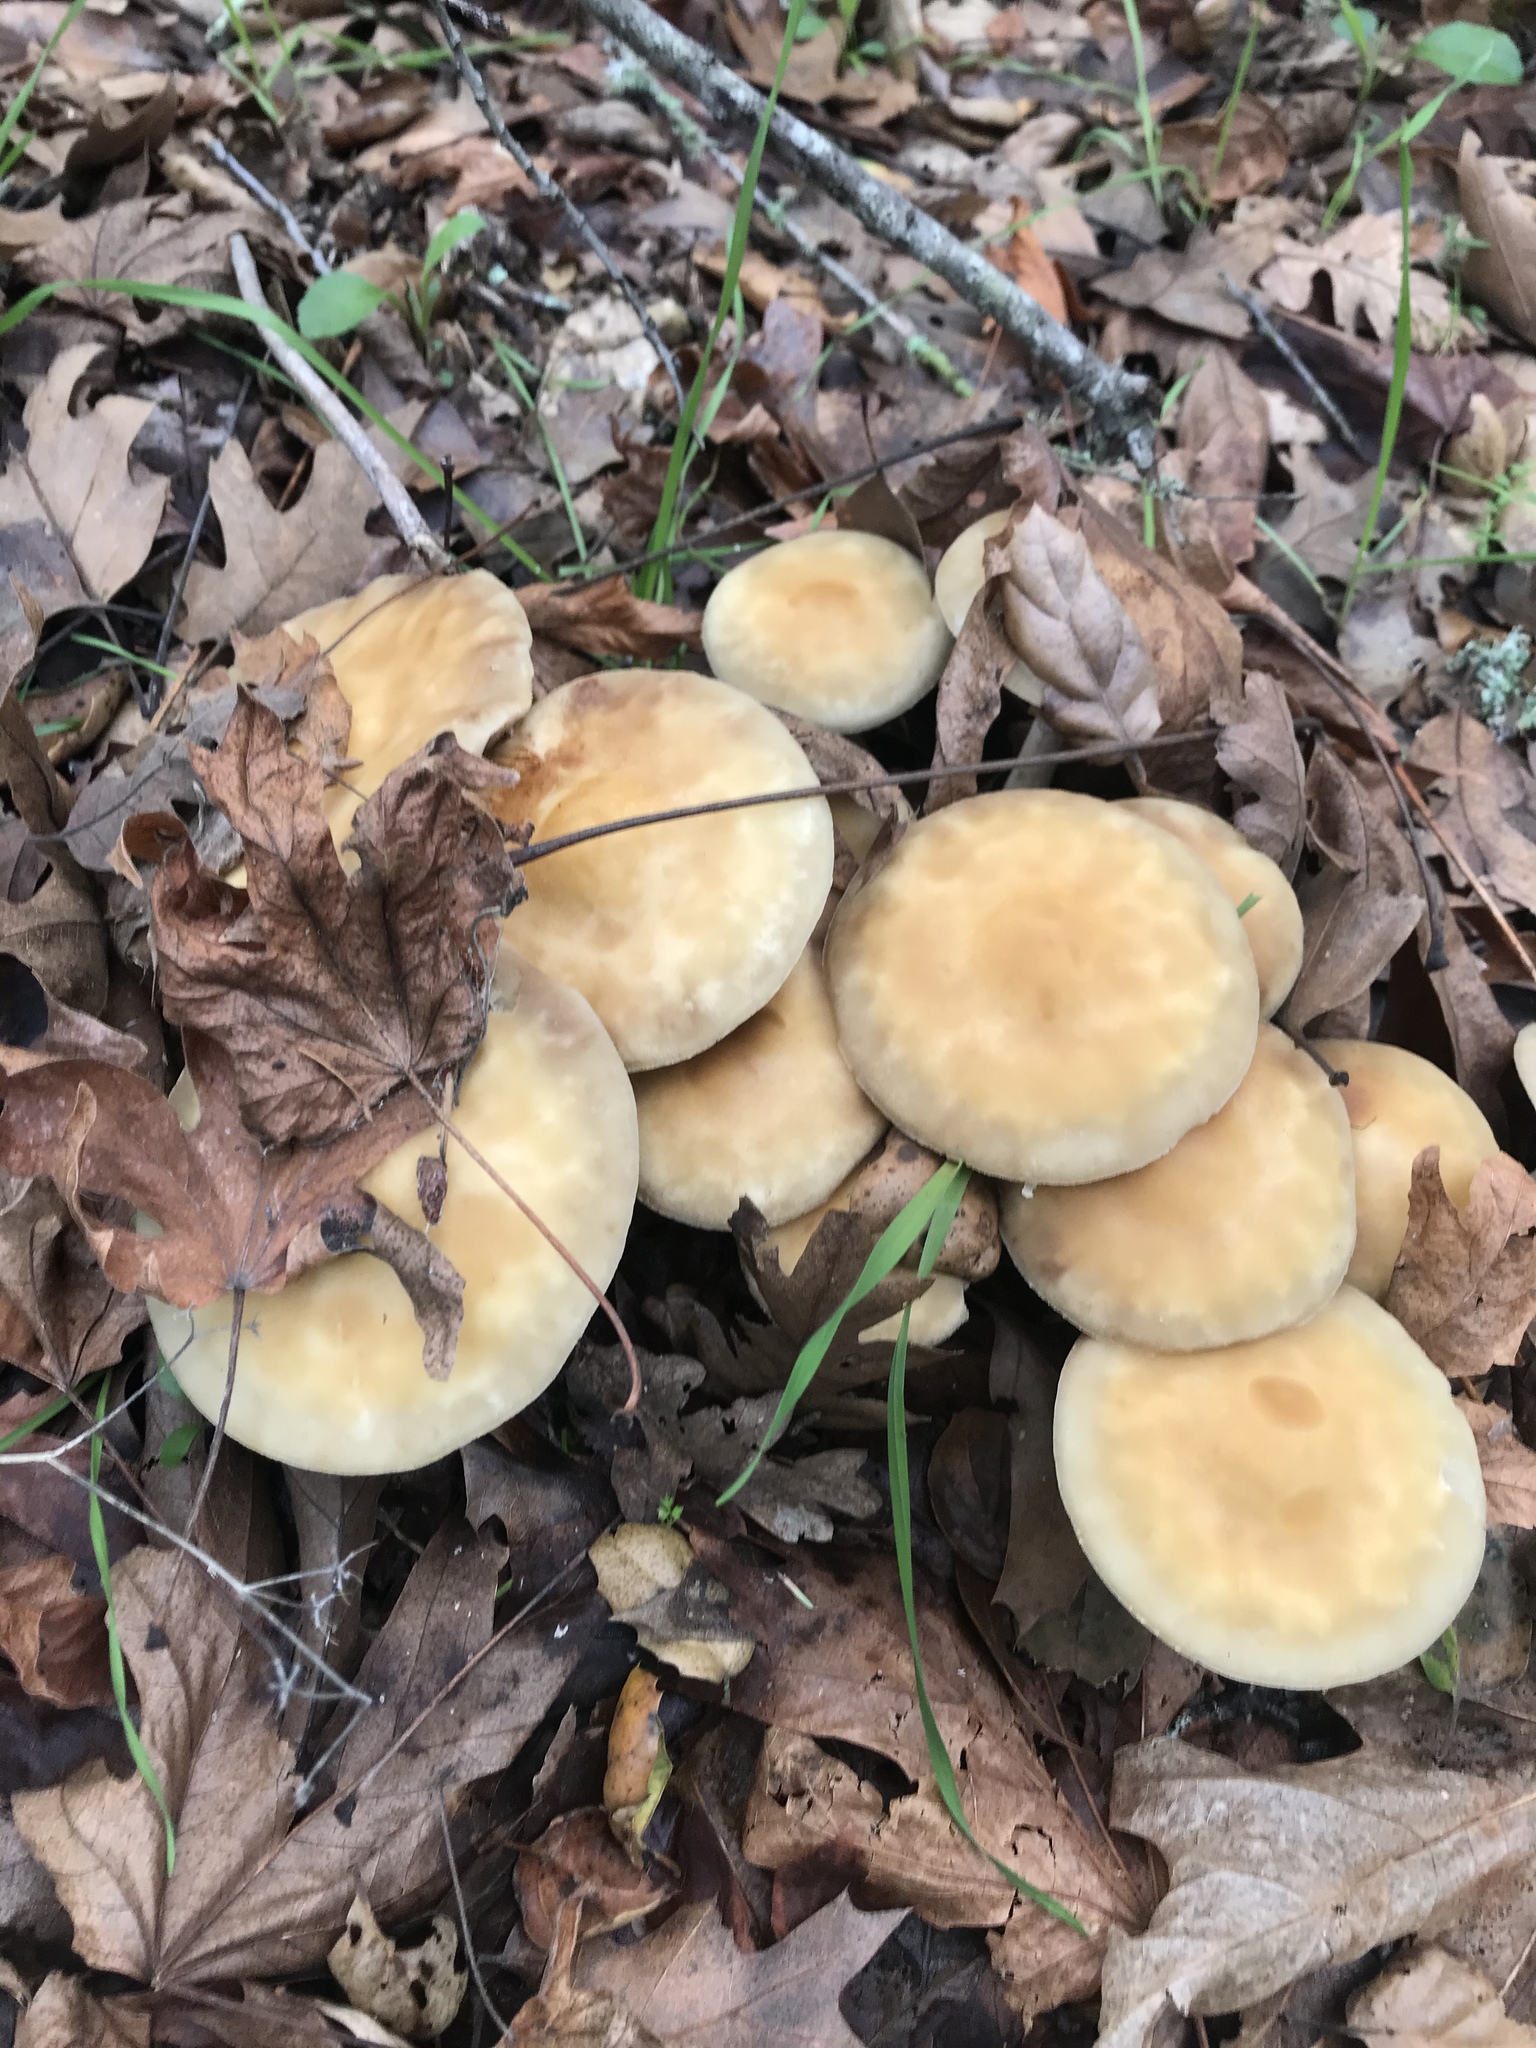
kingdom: Fungi
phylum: Basidiomycota
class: Agaricomycetes
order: Agaricales
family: Strophariaceae
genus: Agrocybe
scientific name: Agrocybe praecox
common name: Spring fieldcap
